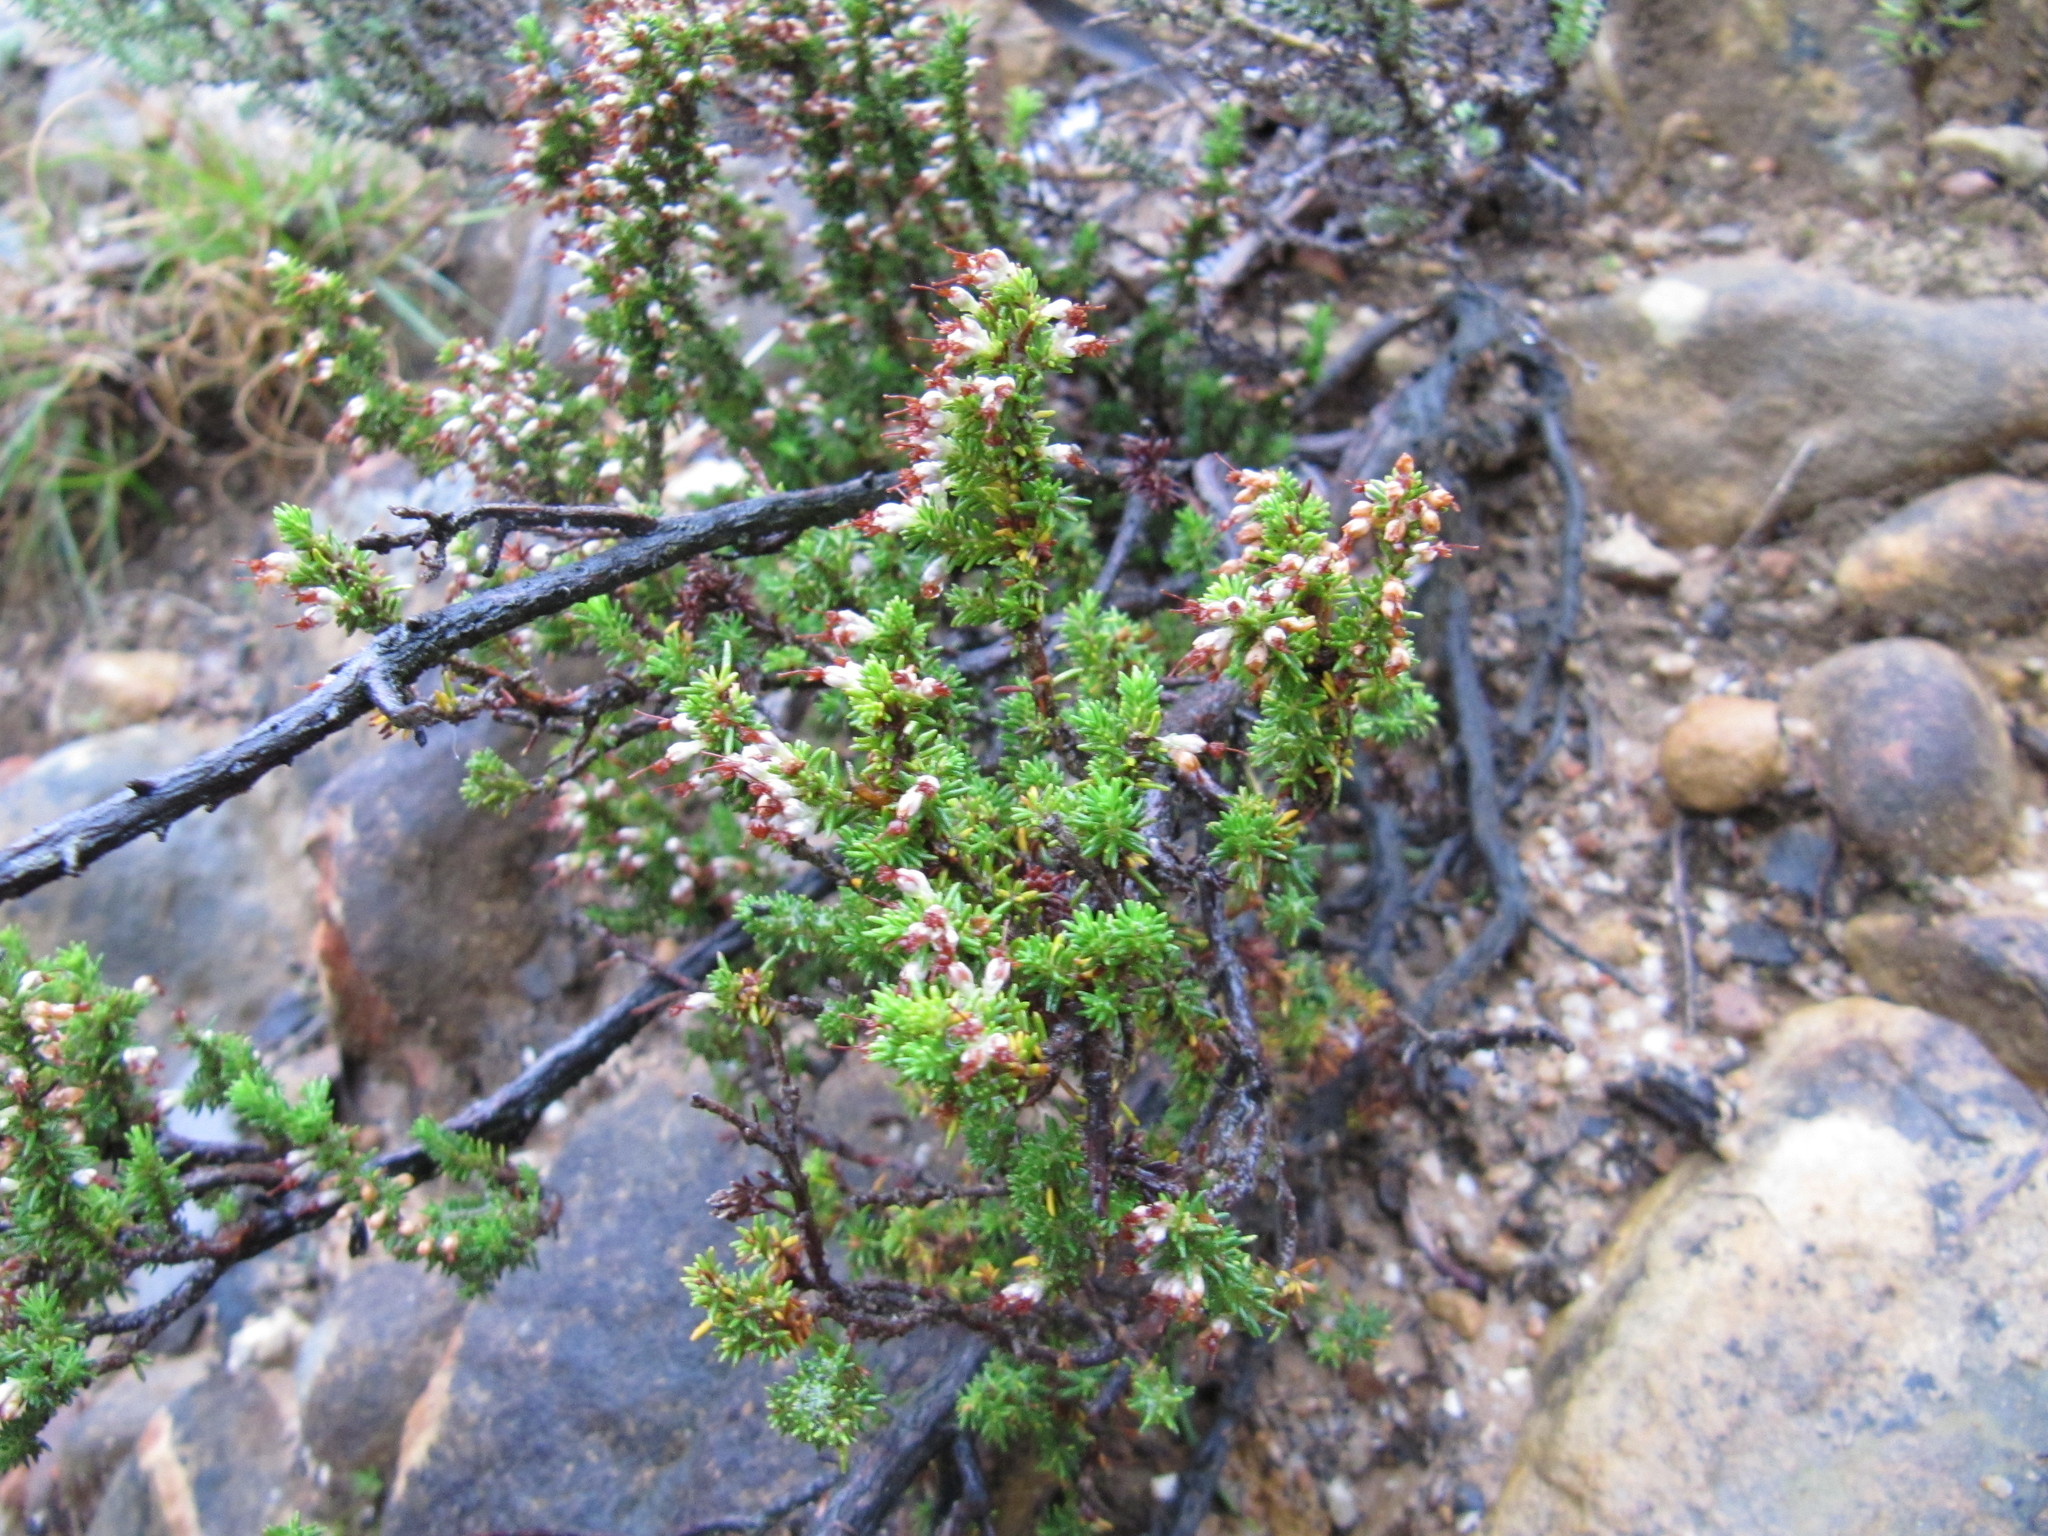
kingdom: Plantae
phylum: Tracheophyta
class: Magnoliopsida
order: Ericales
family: Ericaceae
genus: Erica
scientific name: Erica imbricata
